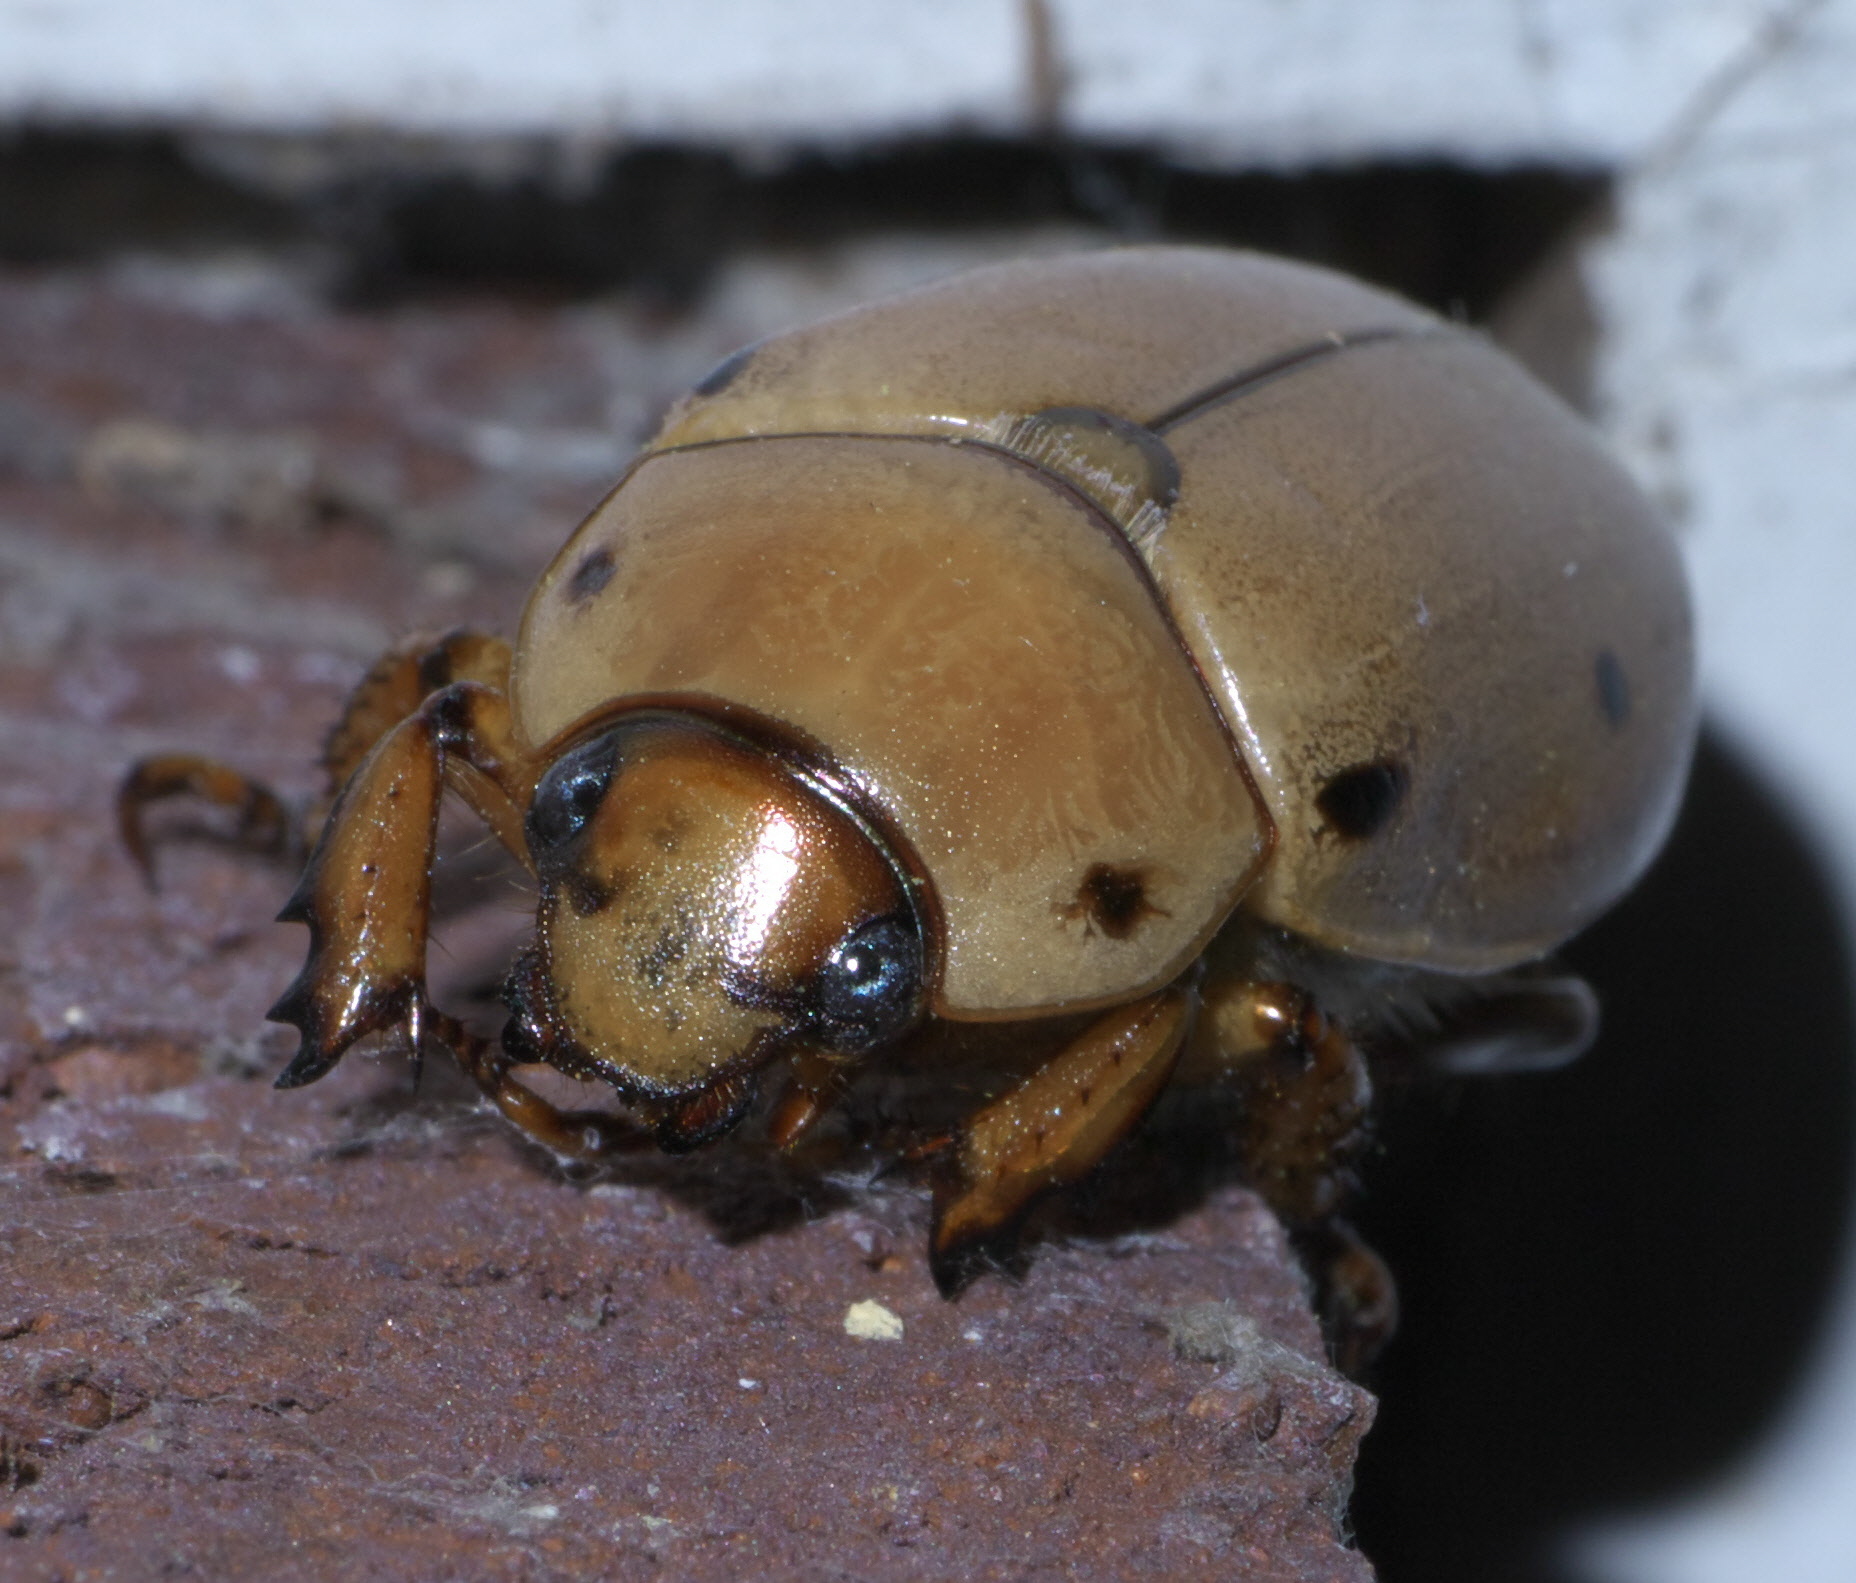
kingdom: Animalia
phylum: Arthropoda
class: Insecta
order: Coleoptera
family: Scarabaeidae
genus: Pelidnota
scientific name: Pelidnota punctata
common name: Grapevine beetle
